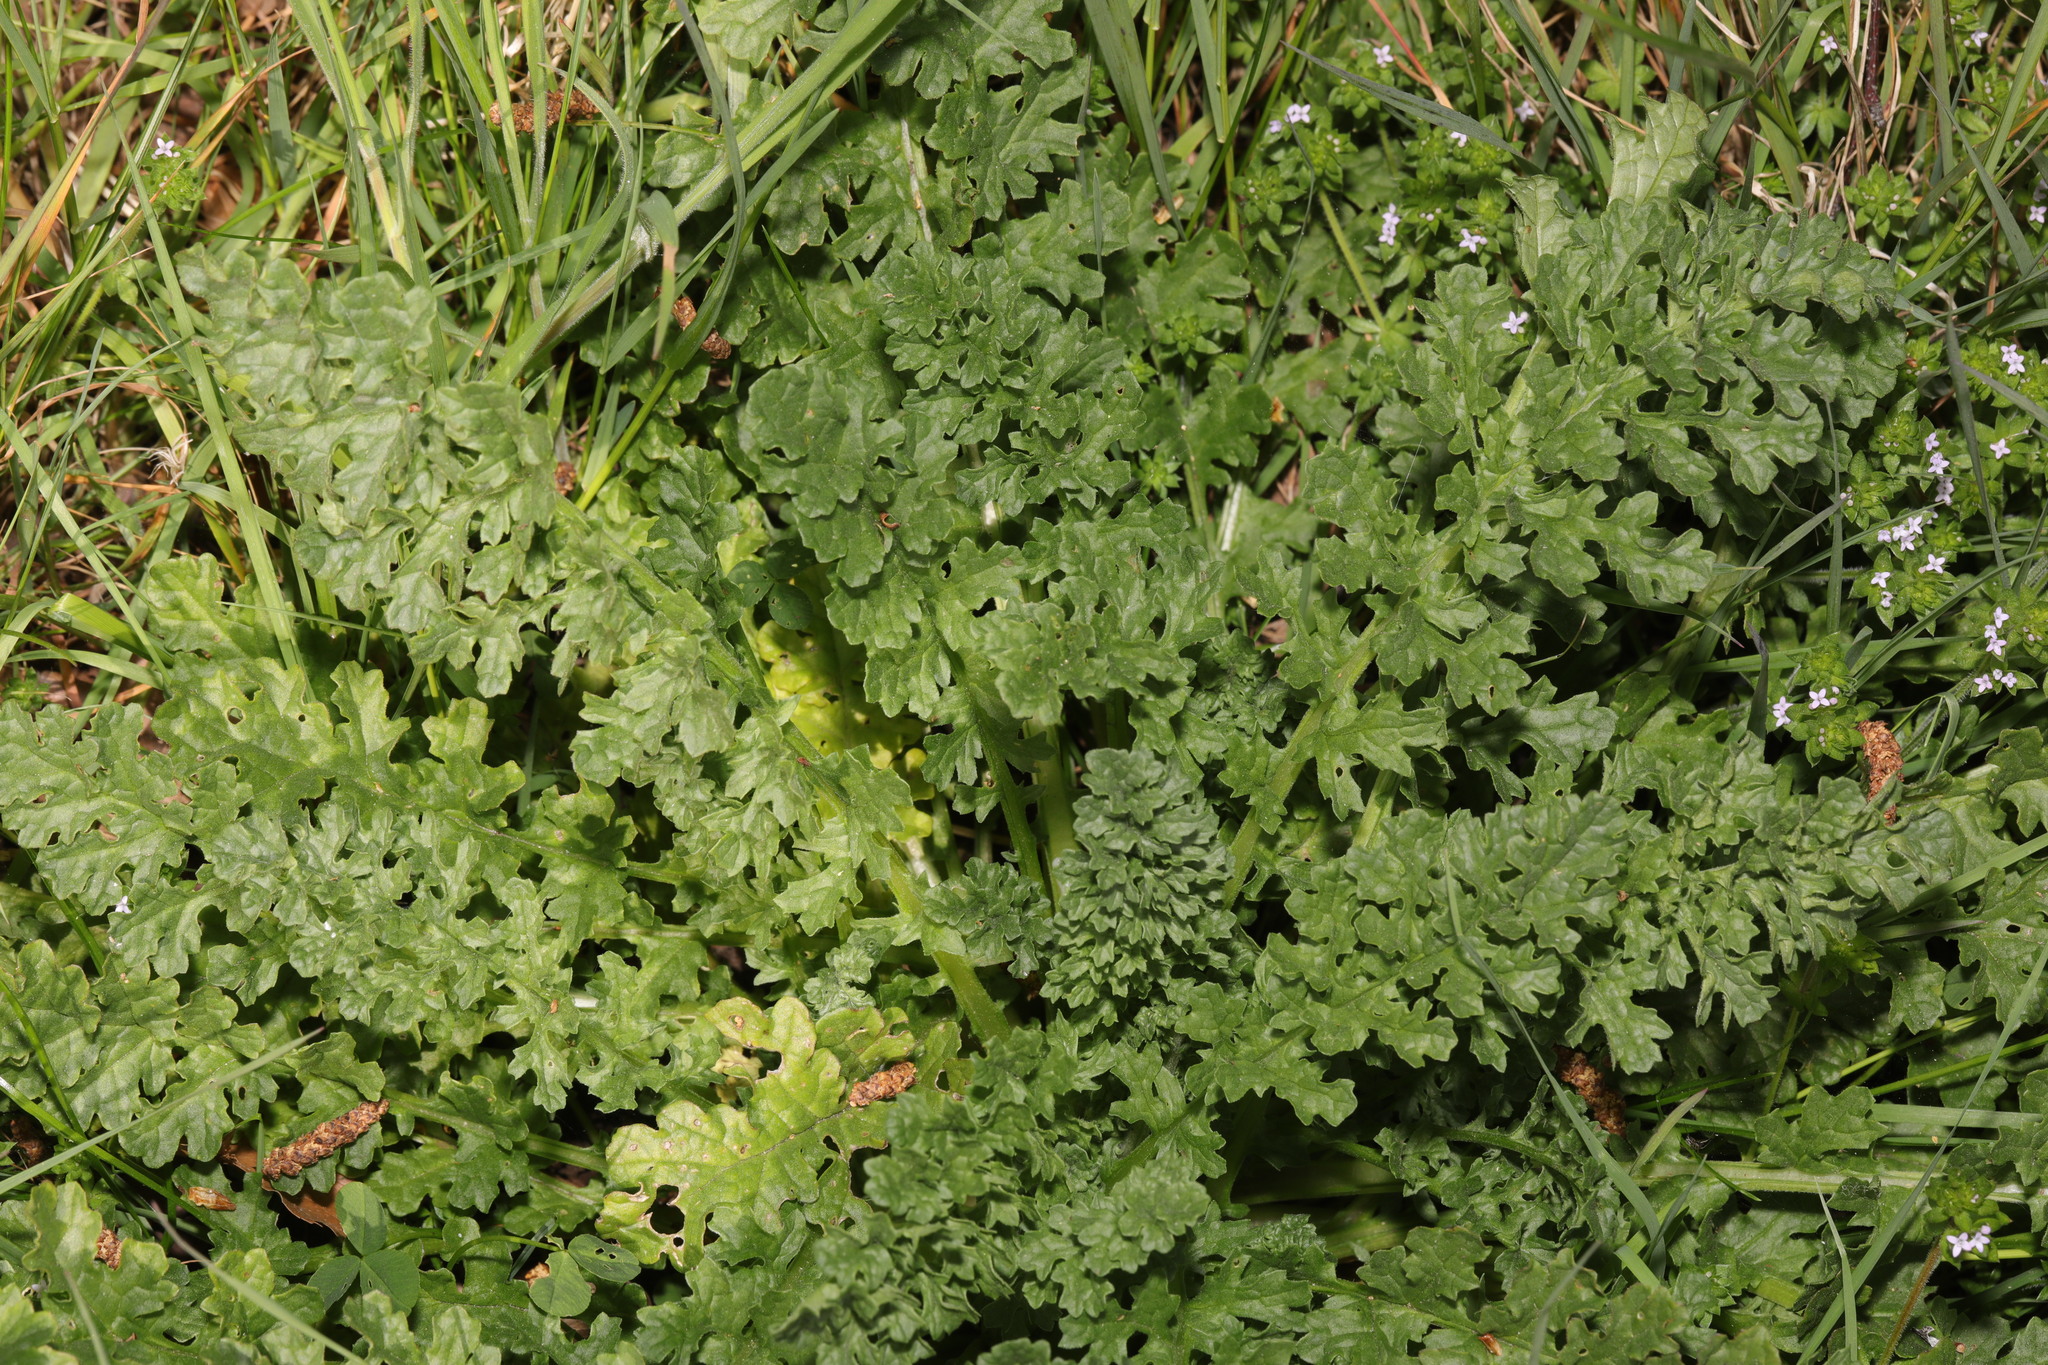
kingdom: Plantae
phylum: Tracheophyta
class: Magnoliopsida
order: Asterales
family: Asteraceae
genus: Jacobaea
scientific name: Jacobaea vulgaris
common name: Stinking willie
